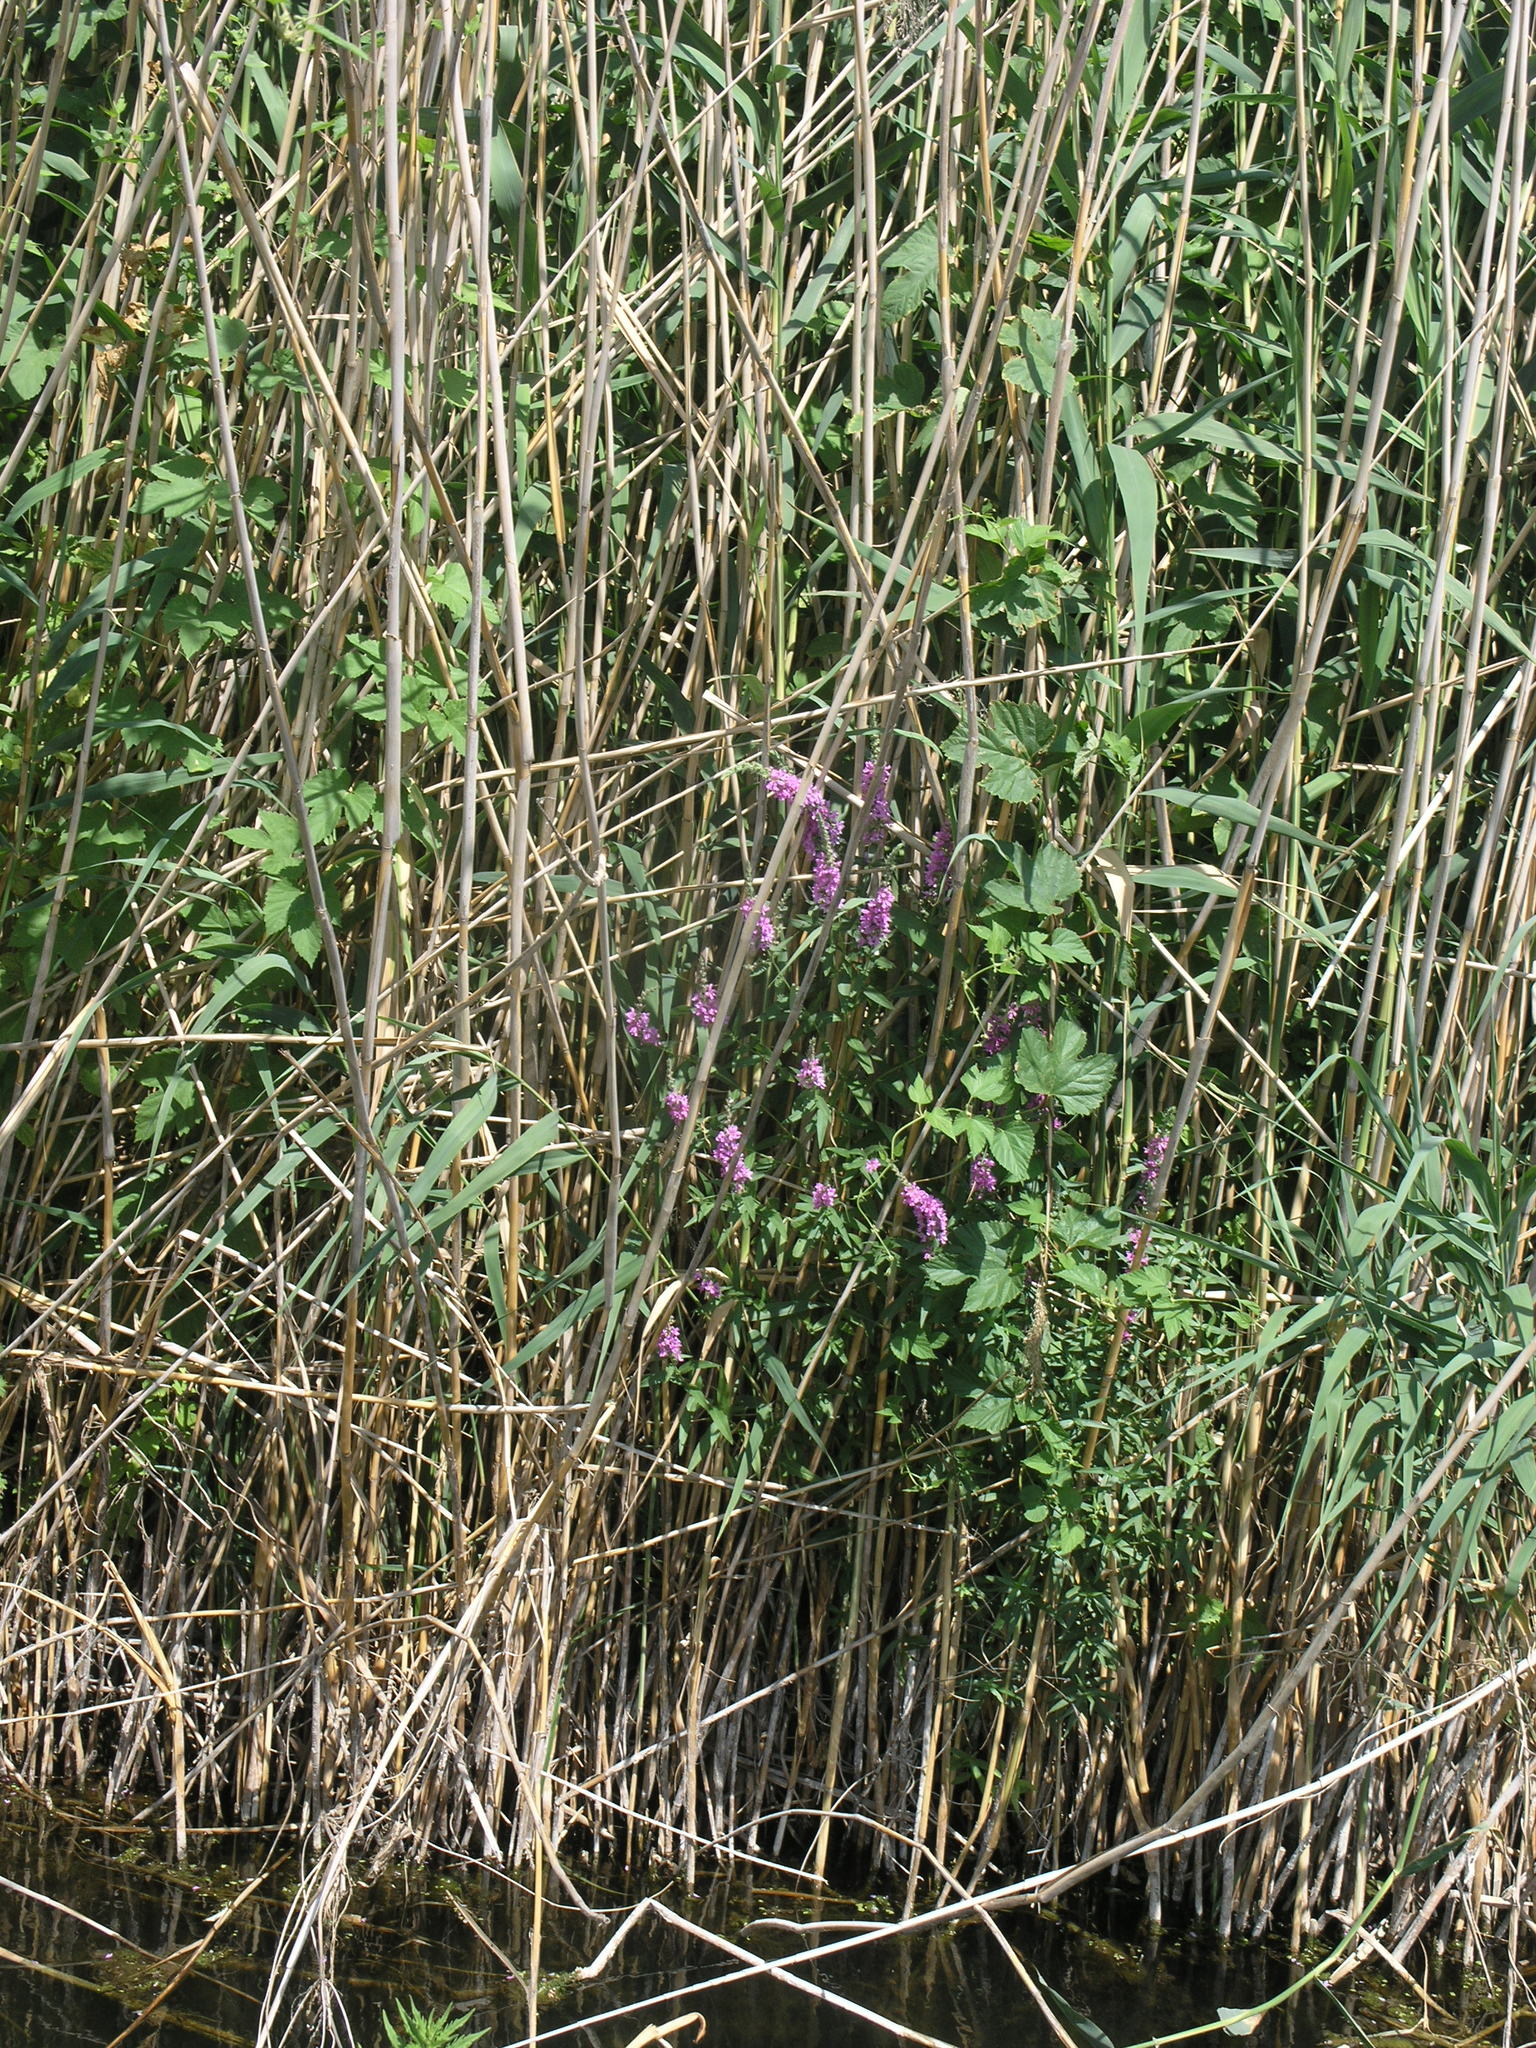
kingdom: Plantae
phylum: Tracheophyta
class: Magnoliopsida
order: Myrtales
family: Lythraceae
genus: Lythrum
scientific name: Lythrum salicaria
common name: Purple loosestrife
